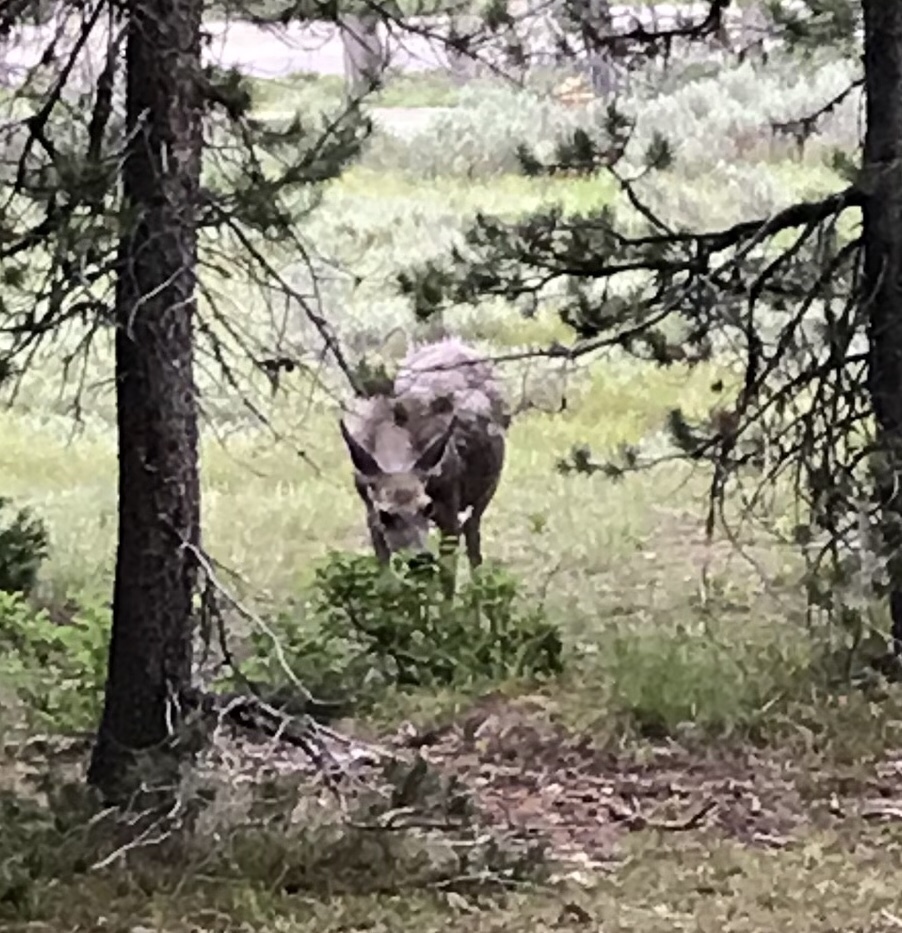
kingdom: Animalia
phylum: Chordata
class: Mammalia
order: Artiodactyla
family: Cervidae
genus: Odocoileus
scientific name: Odocoileus hemionus
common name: Mule deer
